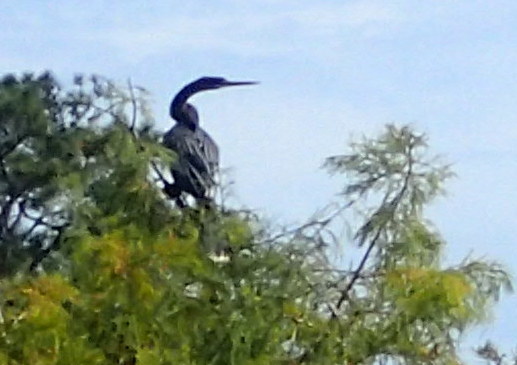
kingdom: Animalia
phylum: Chordata
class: Aves
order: Suliformes
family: Anhingidae
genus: Anhinga
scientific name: Anhinga anhinga
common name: Anhinga
